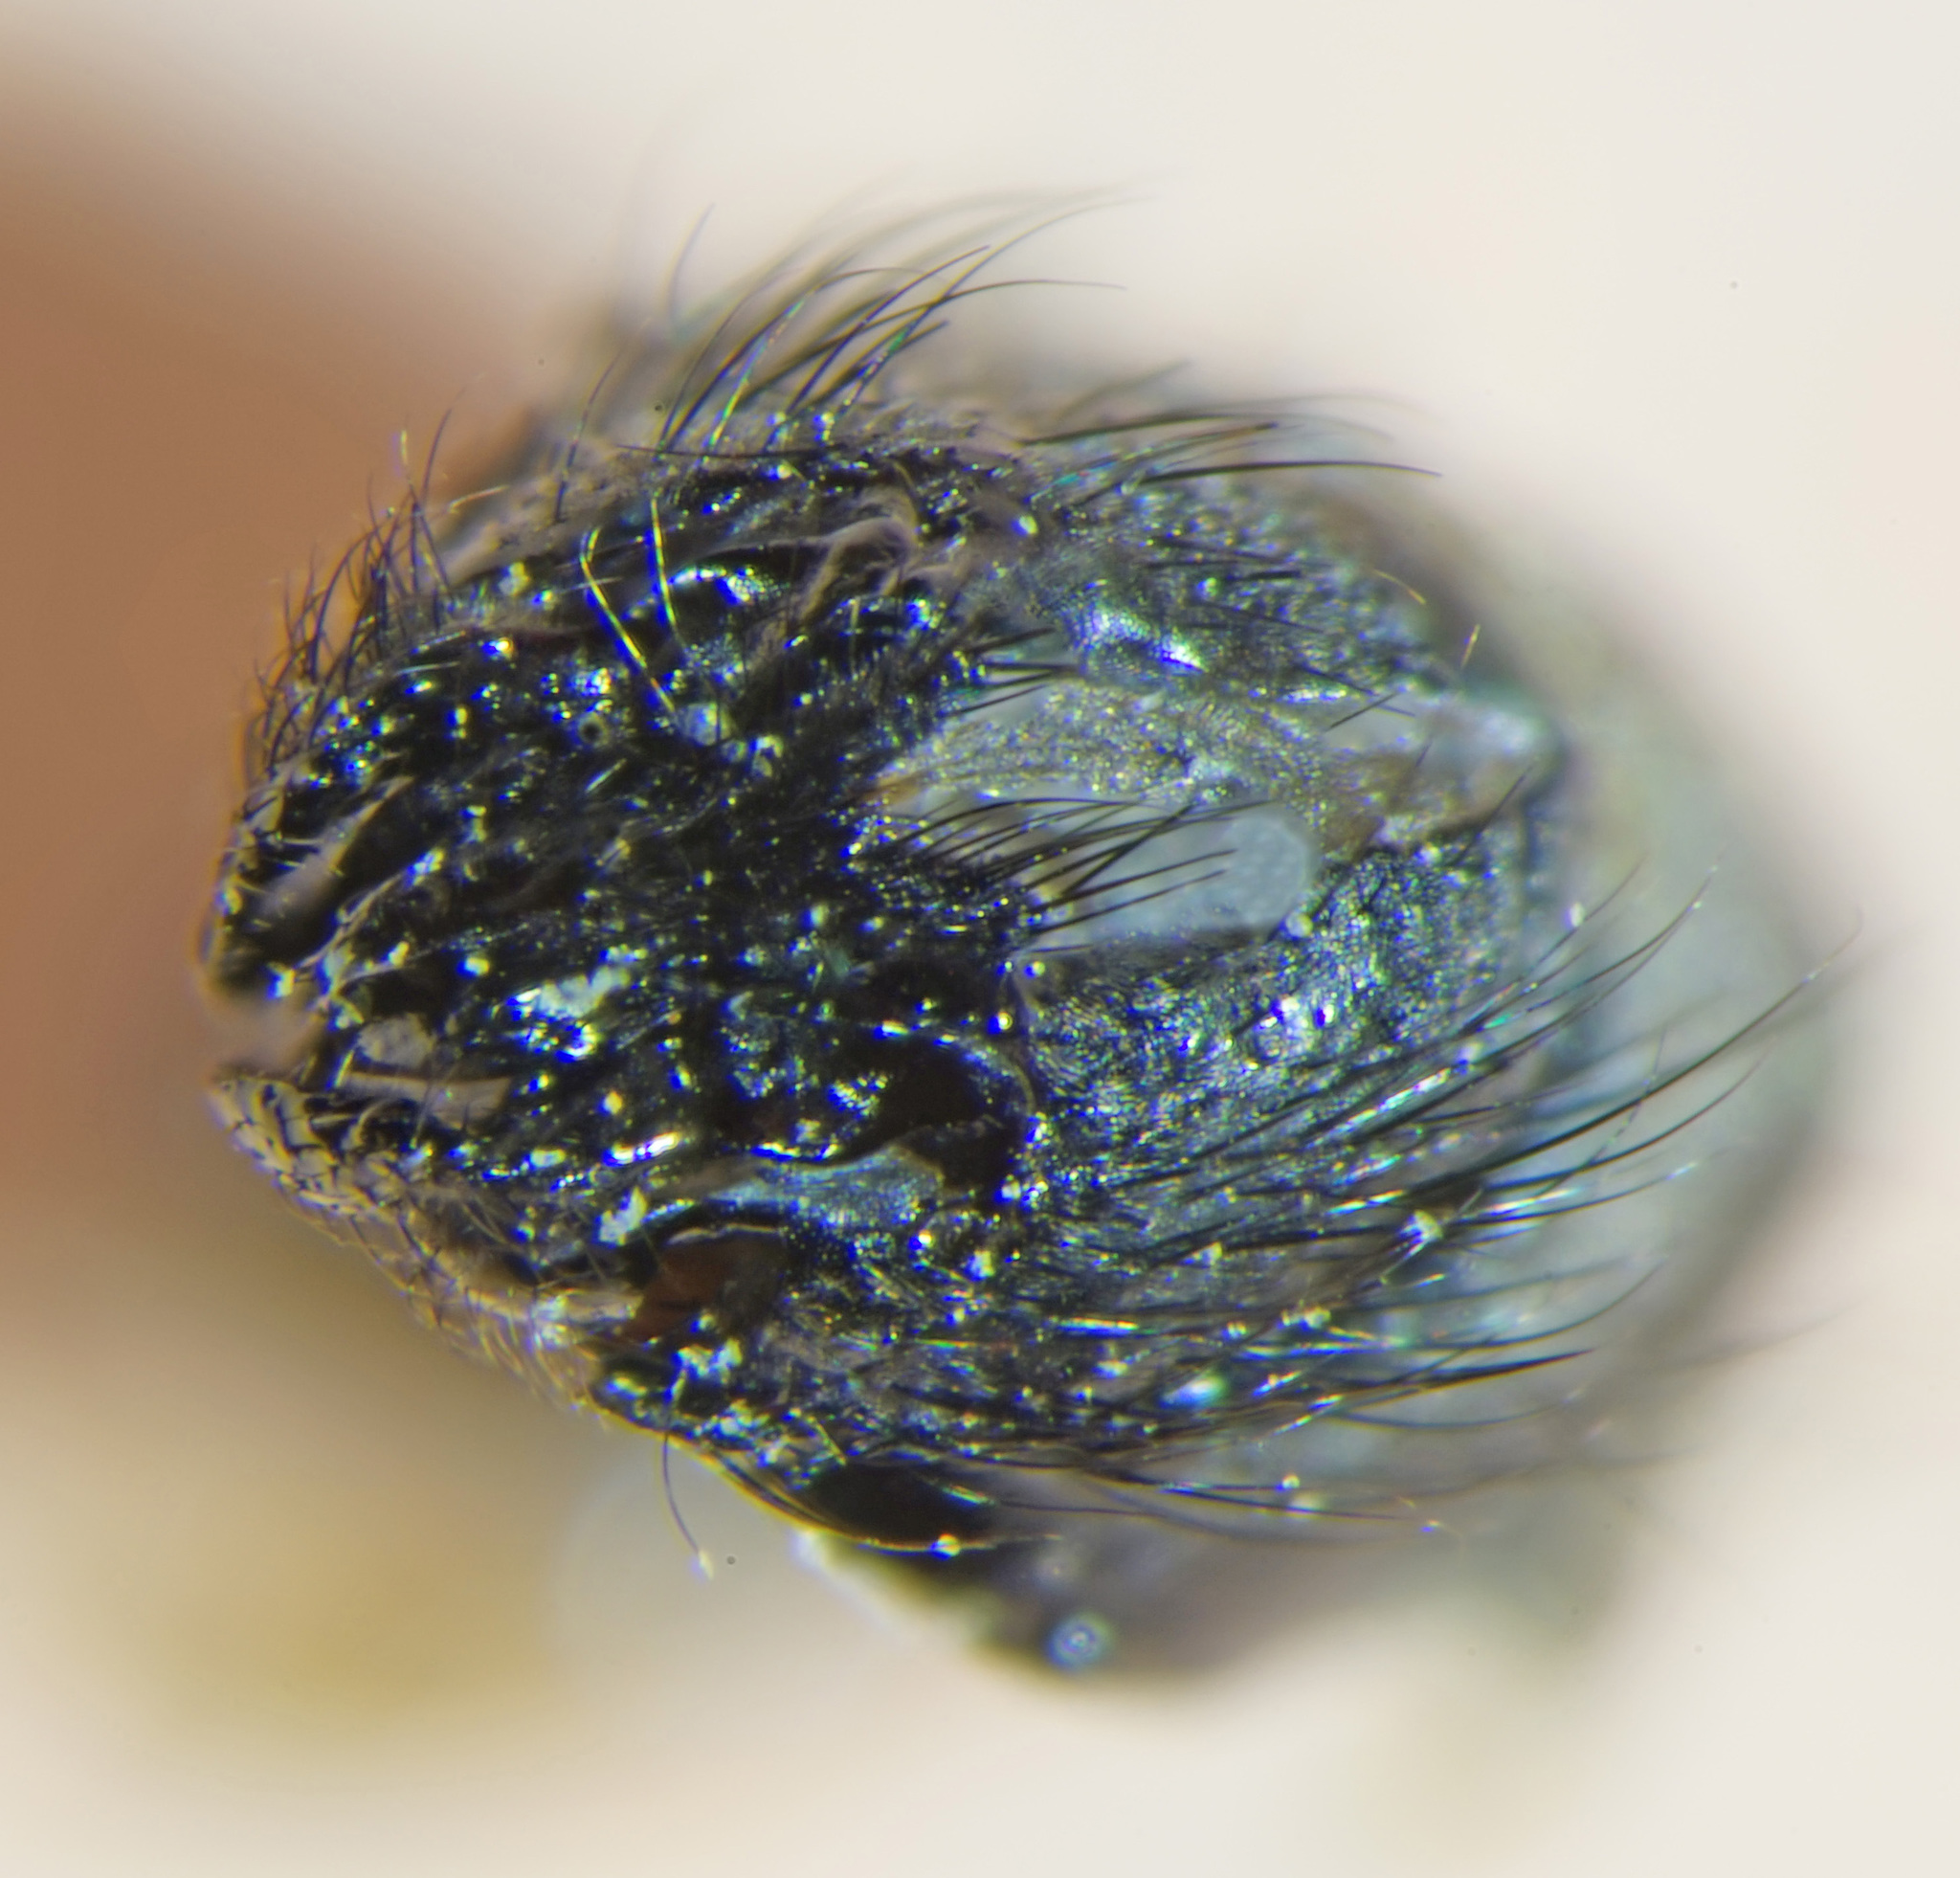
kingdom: Animalia
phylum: Arthropoda
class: Insecta
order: Diptera
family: Calliphoridae
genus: Onesia
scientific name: Onesia austriaca
